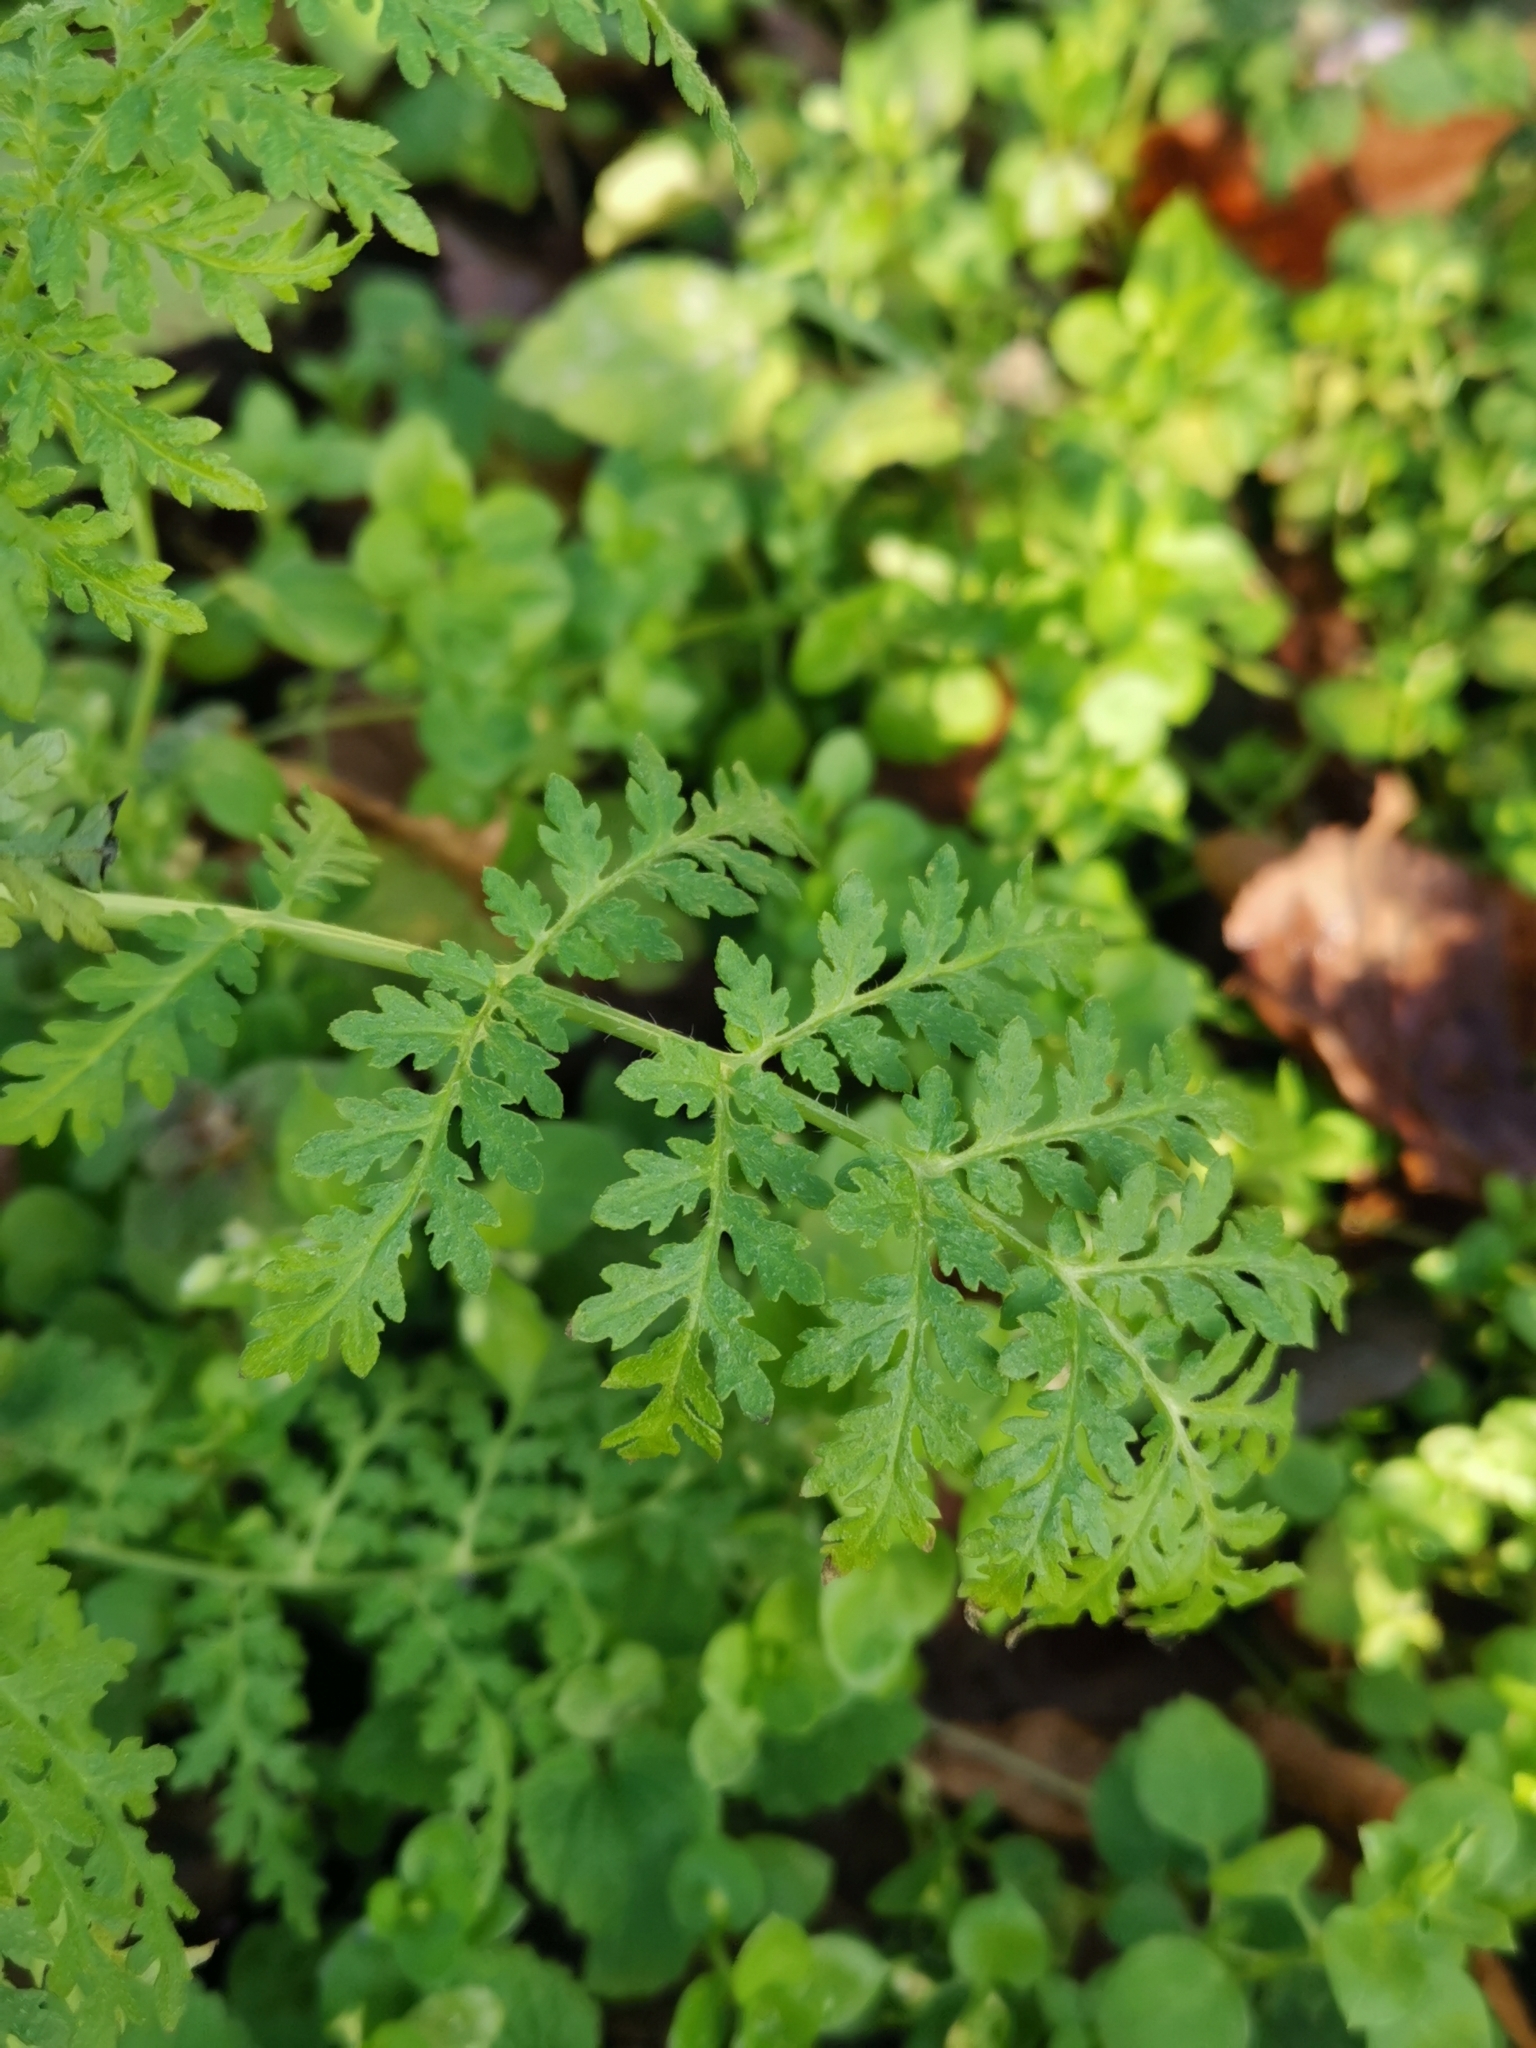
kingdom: Plantae
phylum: Tracheophyta
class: Magnoliopsida
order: Boraginales
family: Hydrophyllaceae
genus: Phacelia
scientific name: Phacelia tanacetifolia
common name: Phacelia
